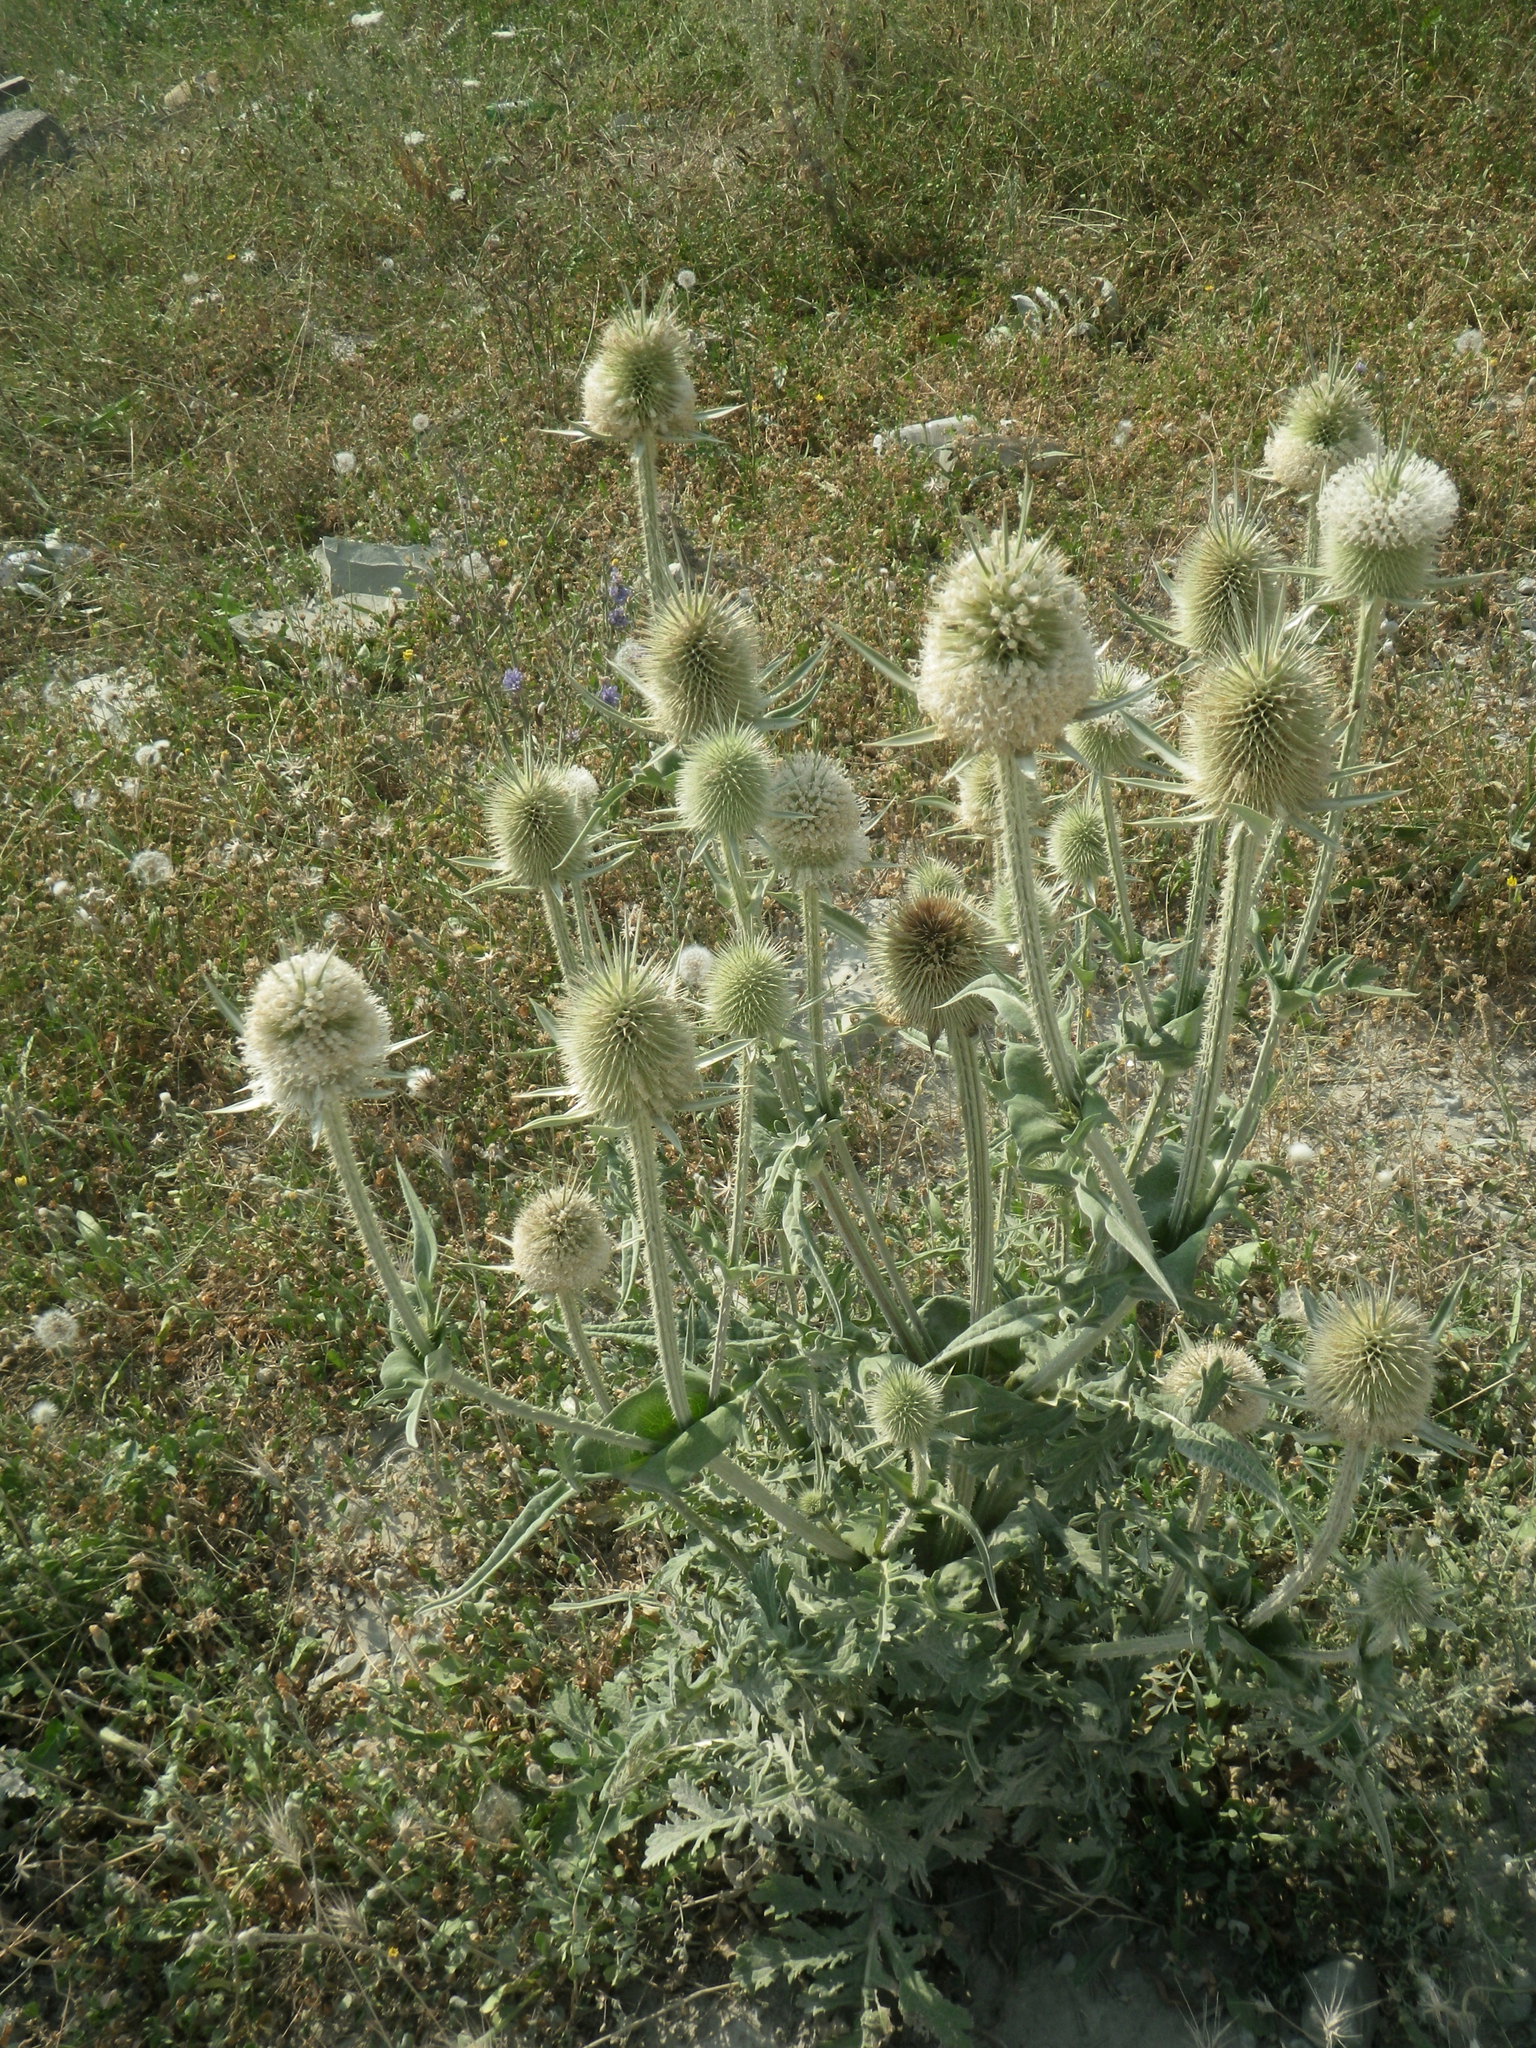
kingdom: Plantae
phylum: Tracheophyta
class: Magnoliopsida
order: Dipsacales
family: Caprifoliaceae
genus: Dipsacus
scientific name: Dipsacus laciniatus
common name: Cut-leaved teasel
